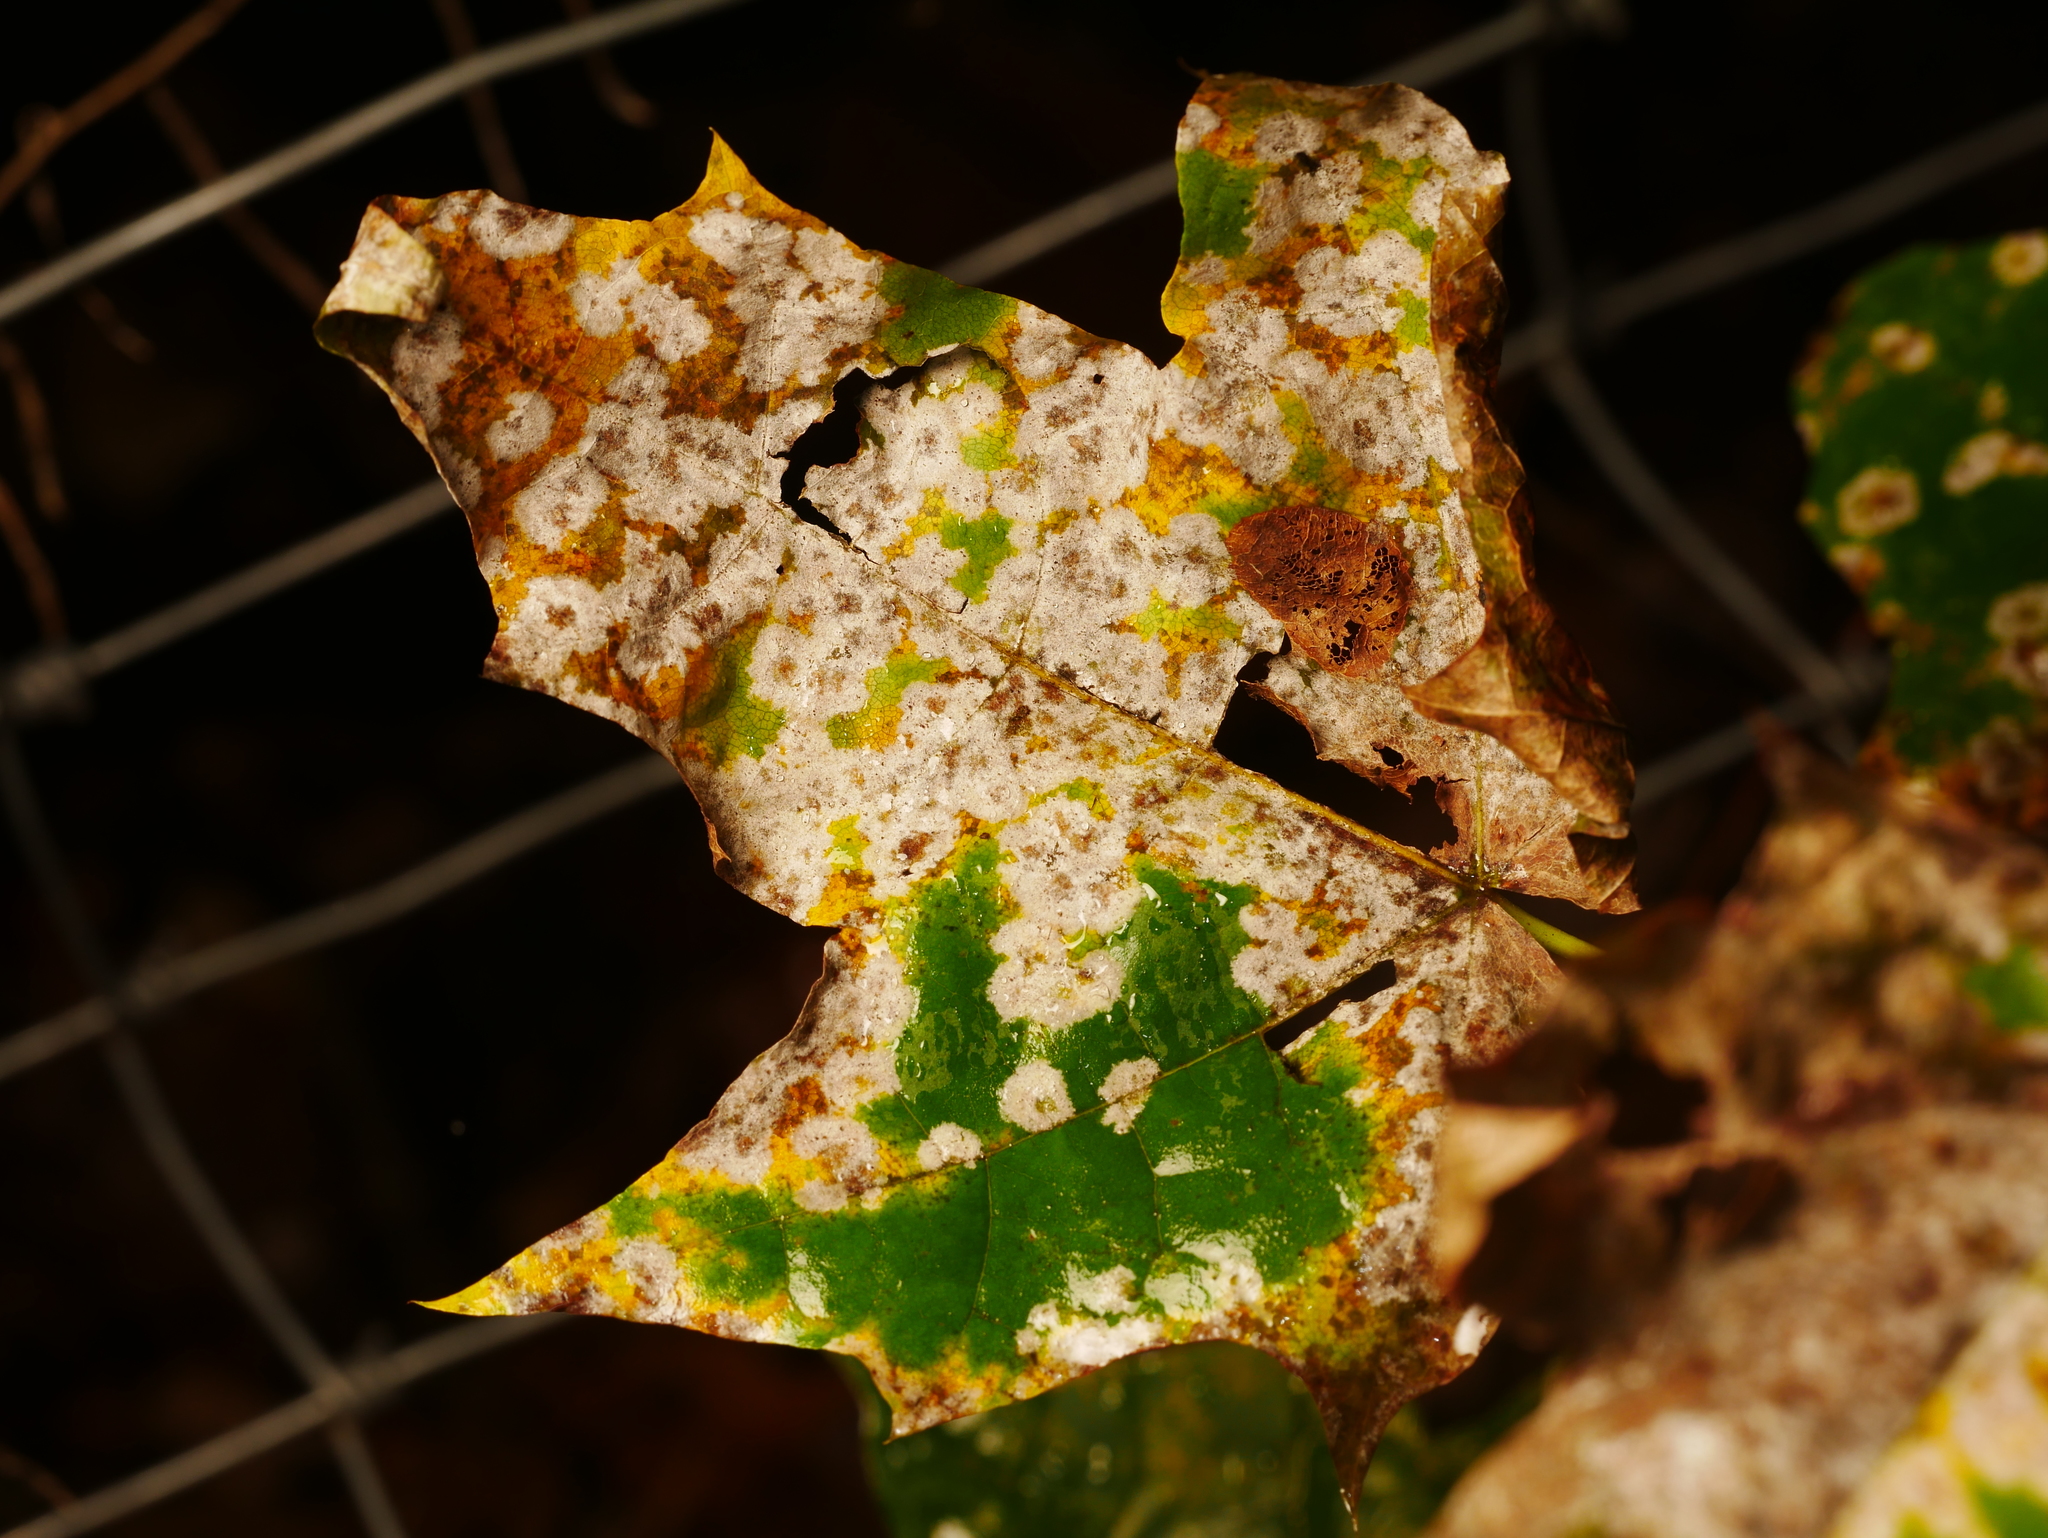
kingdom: Plantae
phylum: Tracheophyta
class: Magnoliopsida
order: Sapindales
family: Sapindaceae
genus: Acer
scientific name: Acer platanoides
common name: Norway maple
